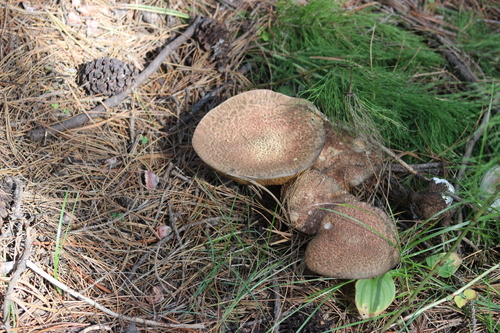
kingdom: Fungi
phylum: Basidiomycota
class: Agaricomycetes
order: Boletales
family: Suillaceae
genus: Suillus
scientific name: Suillus spraguei
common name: Painted suillus
